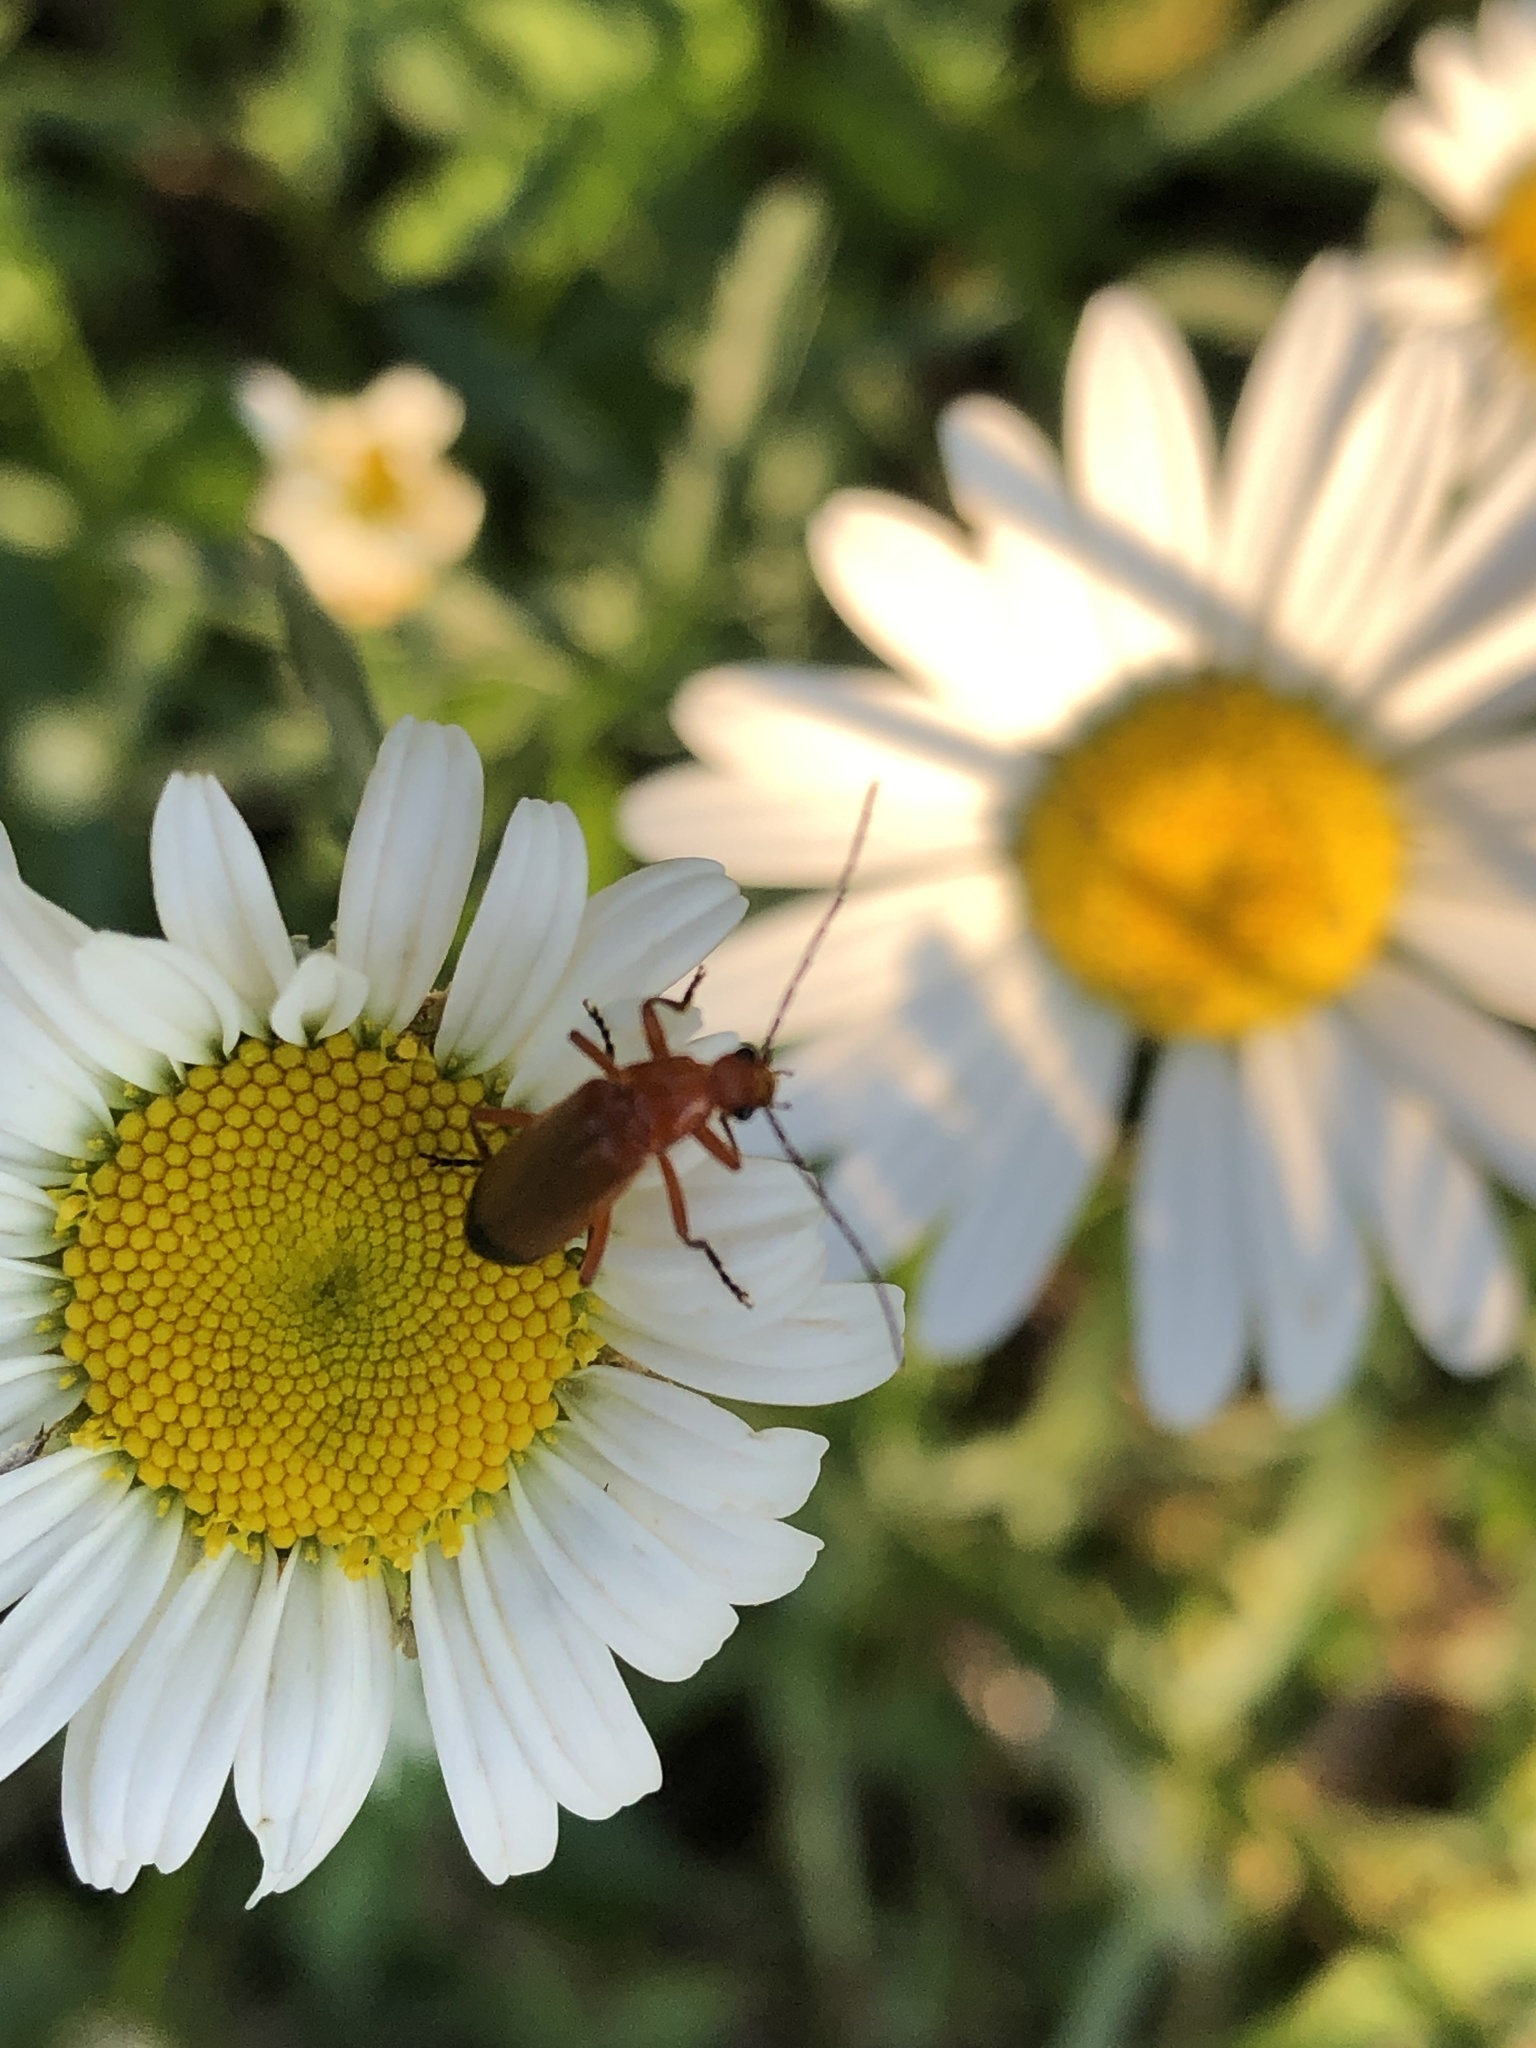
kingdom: Animalia
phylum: Arthropoda
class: Insecta
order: Coleoptera
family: Cantharidae
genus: Rhagonycha
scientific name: Rhagonycha fulva
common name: Common red soldier beetle
